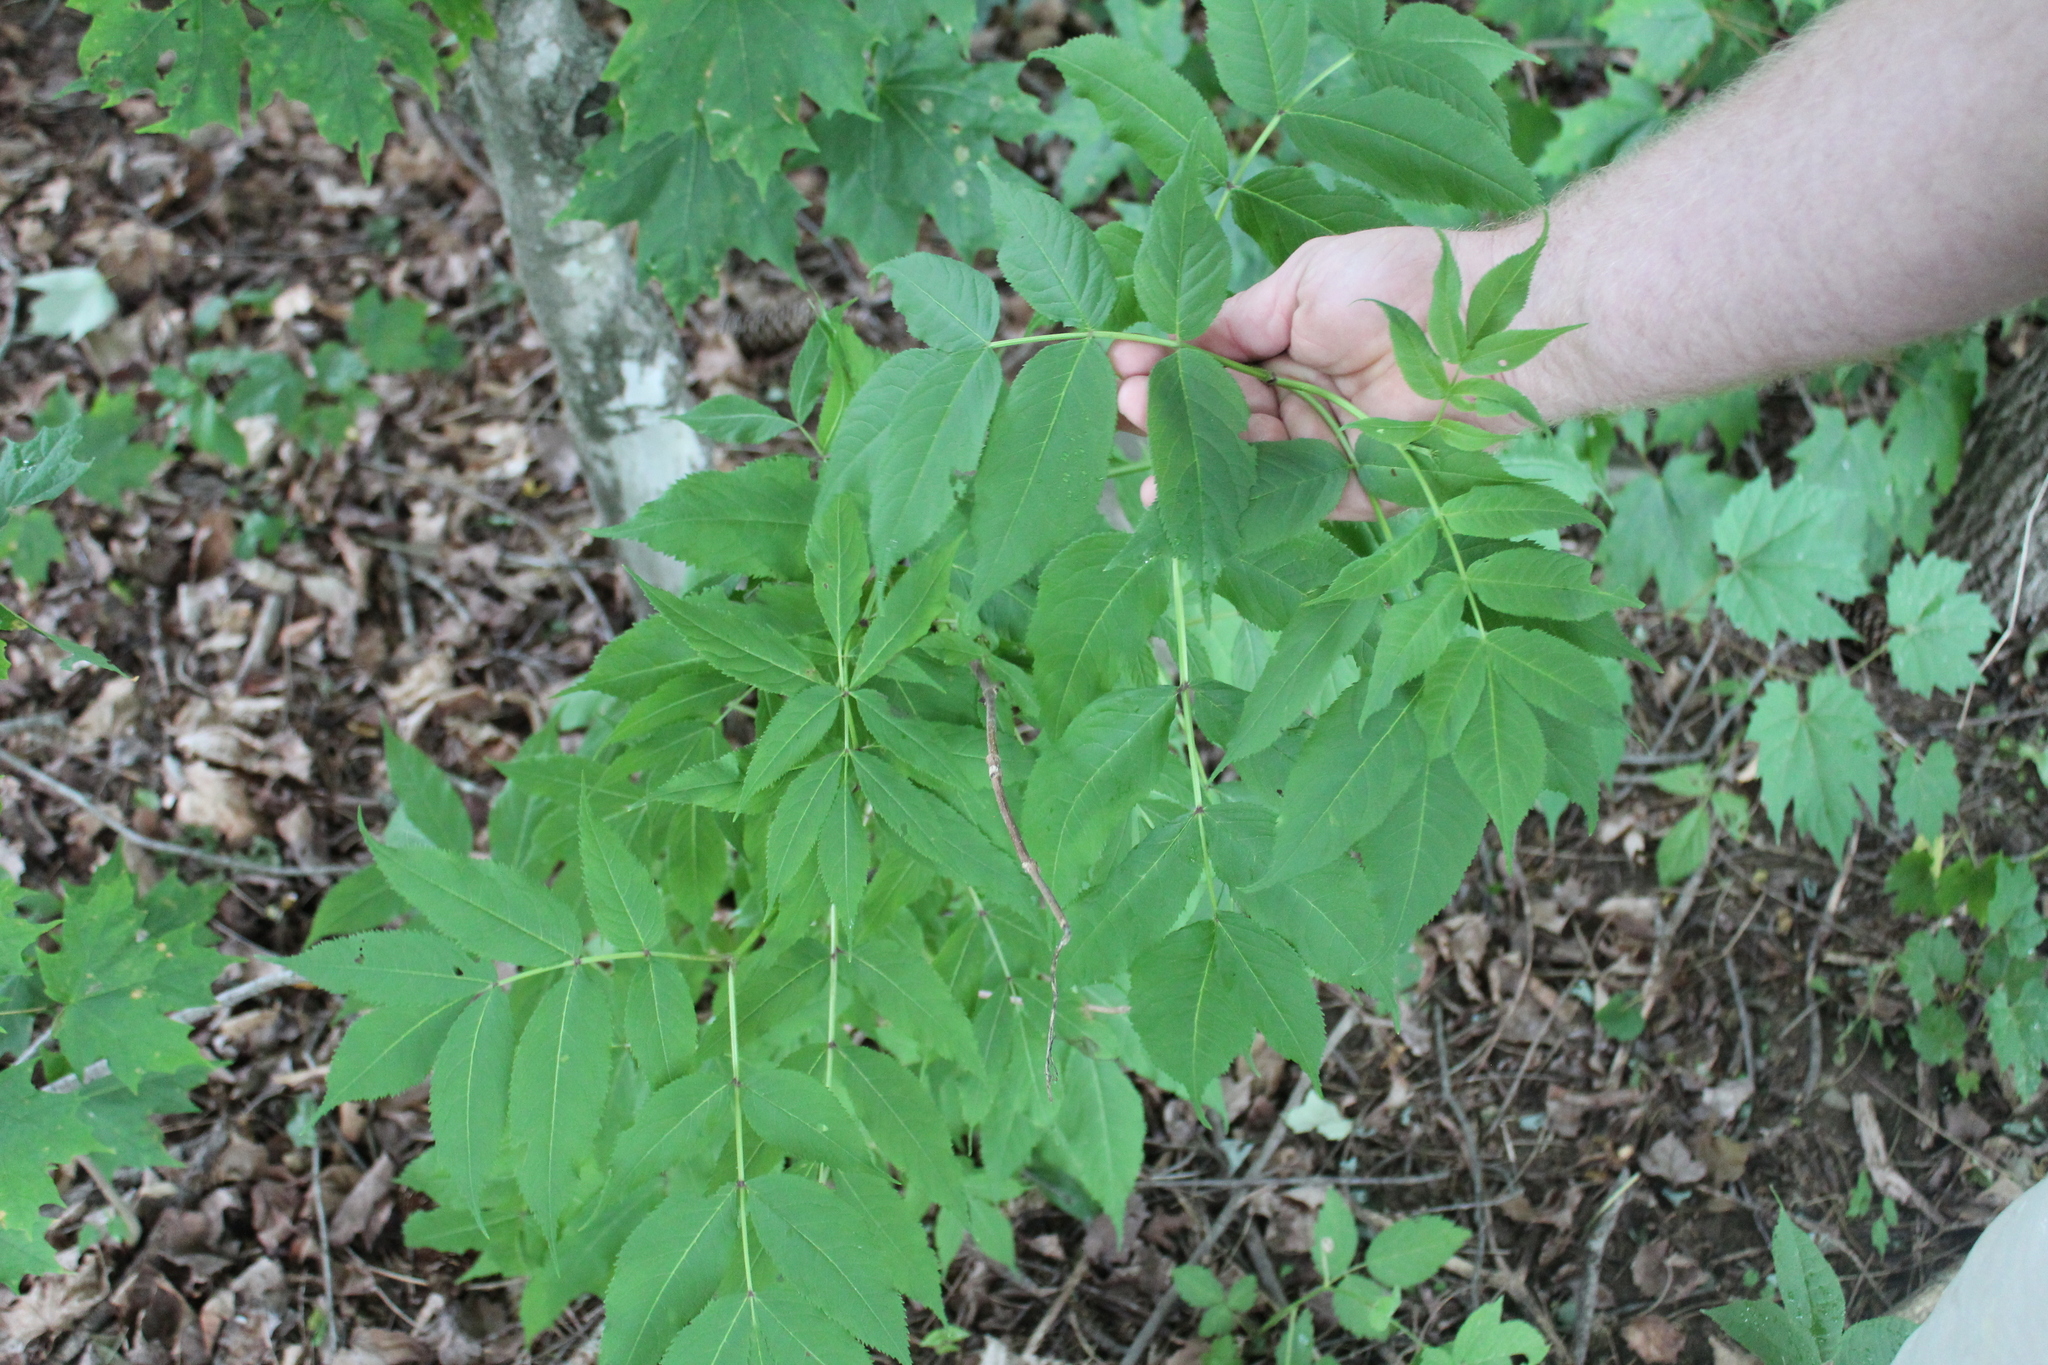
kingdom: Plantae
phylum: Tracheophyta
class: Magnoliopsida
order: Dipsacales
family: Viburnaceae
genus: Sambucus
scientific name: Sambucus canadensis
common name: American elder
